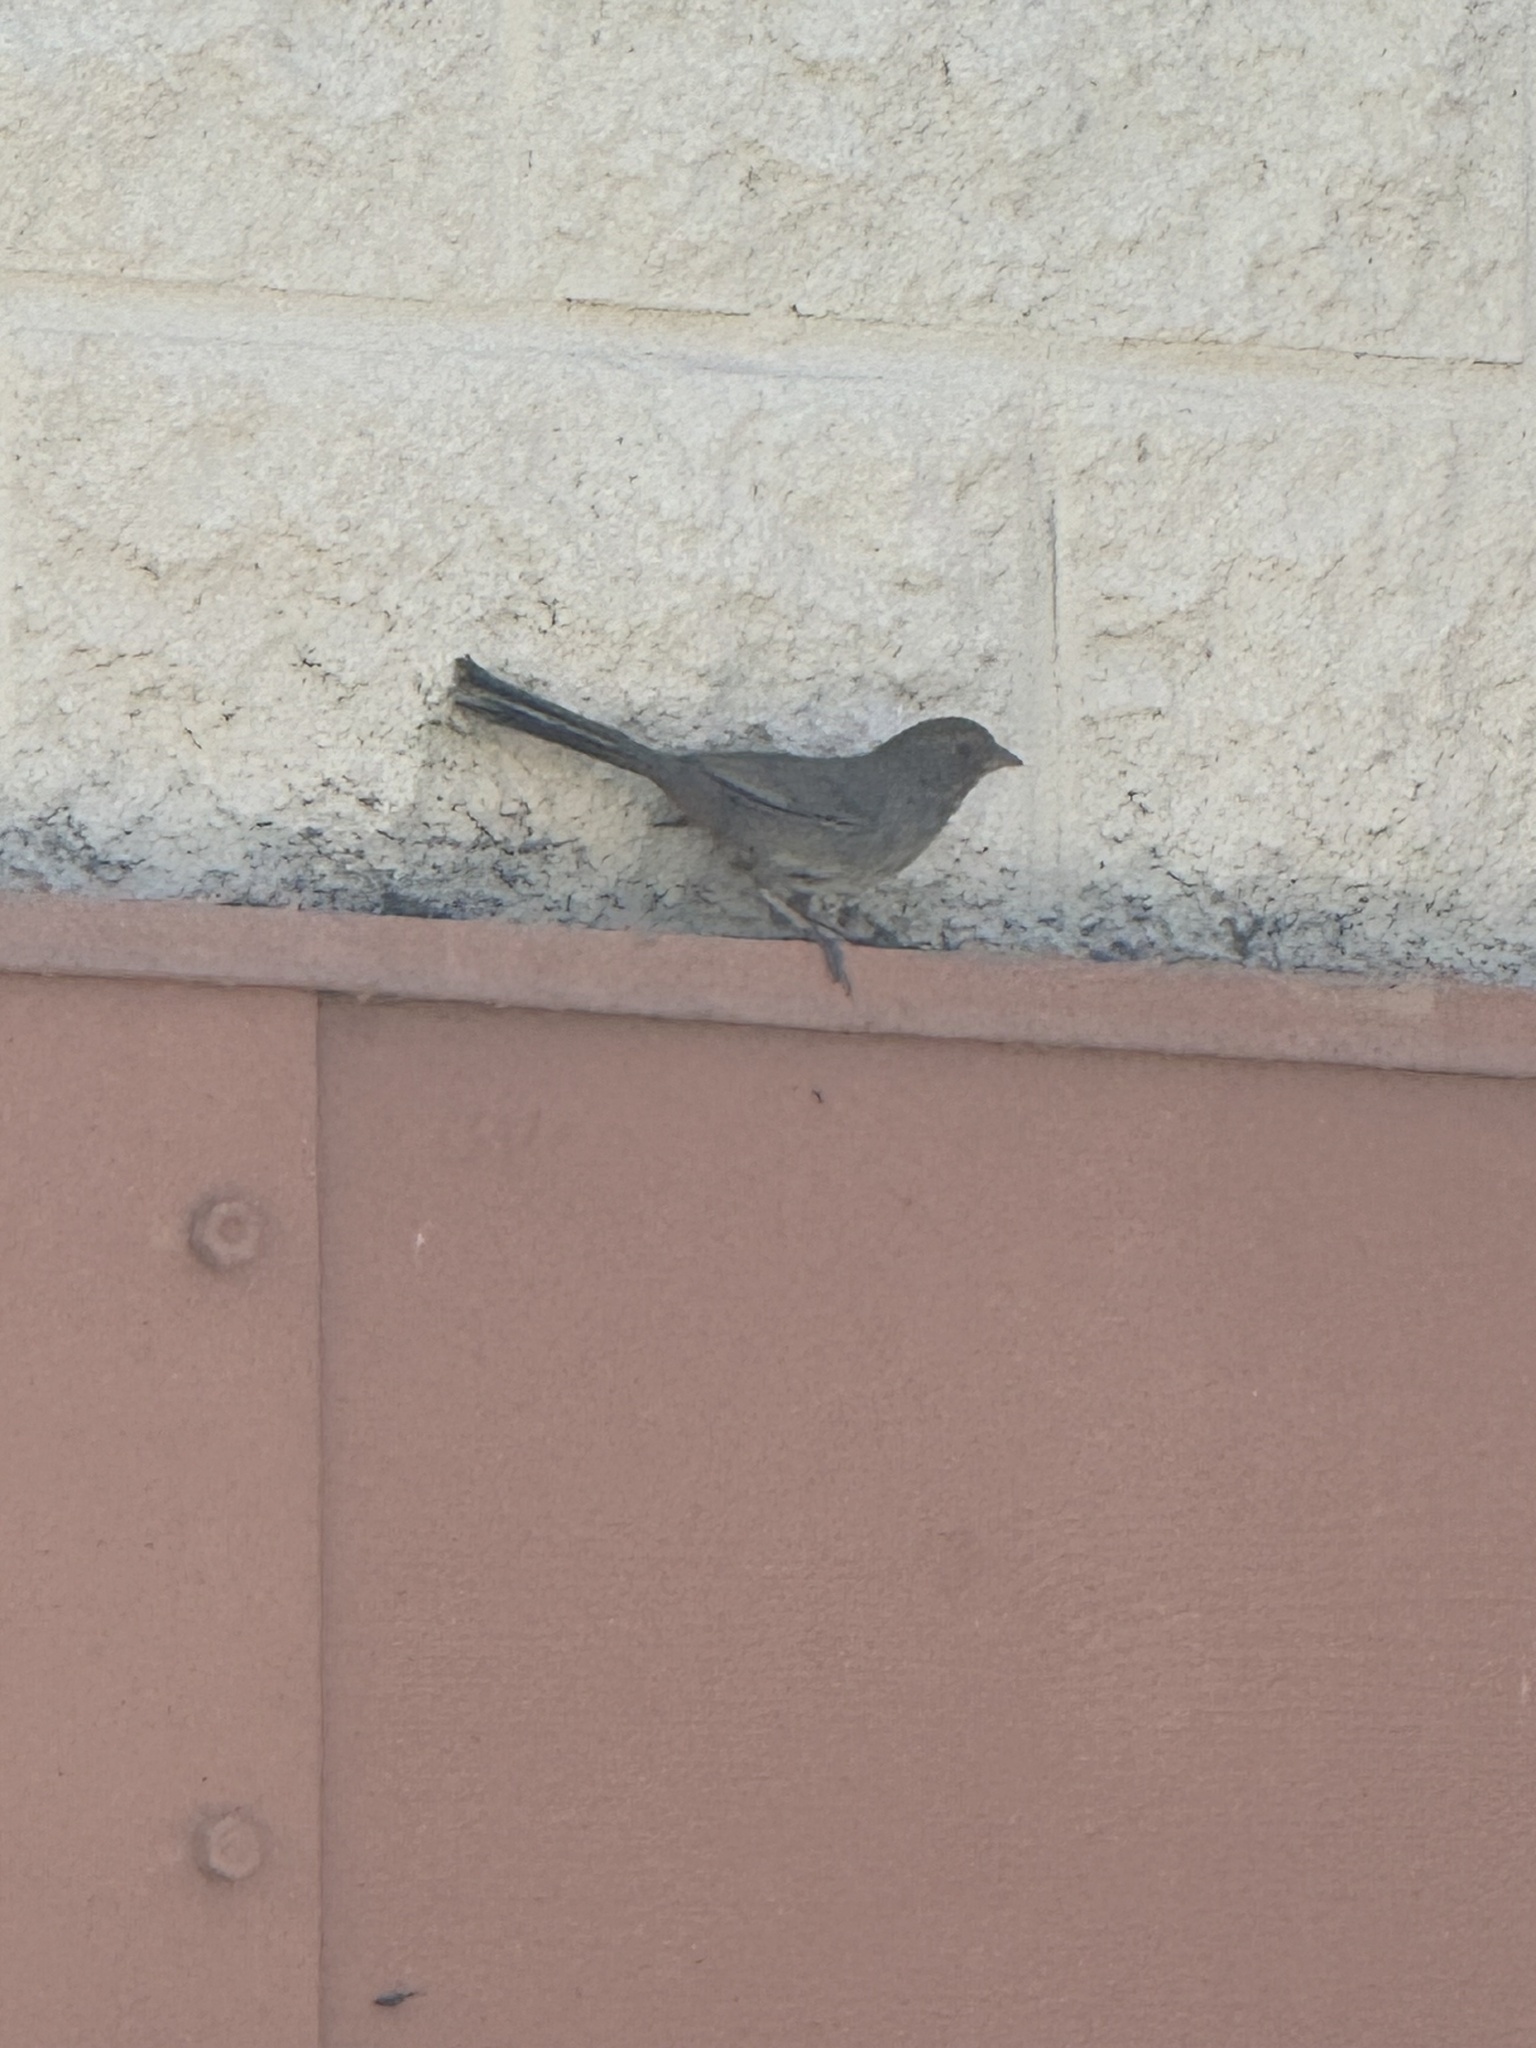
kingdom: Animalia
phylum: Chordata
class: Aves
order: Passeriformes
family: Passerellidae
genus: Melozone
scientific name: Melozone crissalis
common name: California towhee
